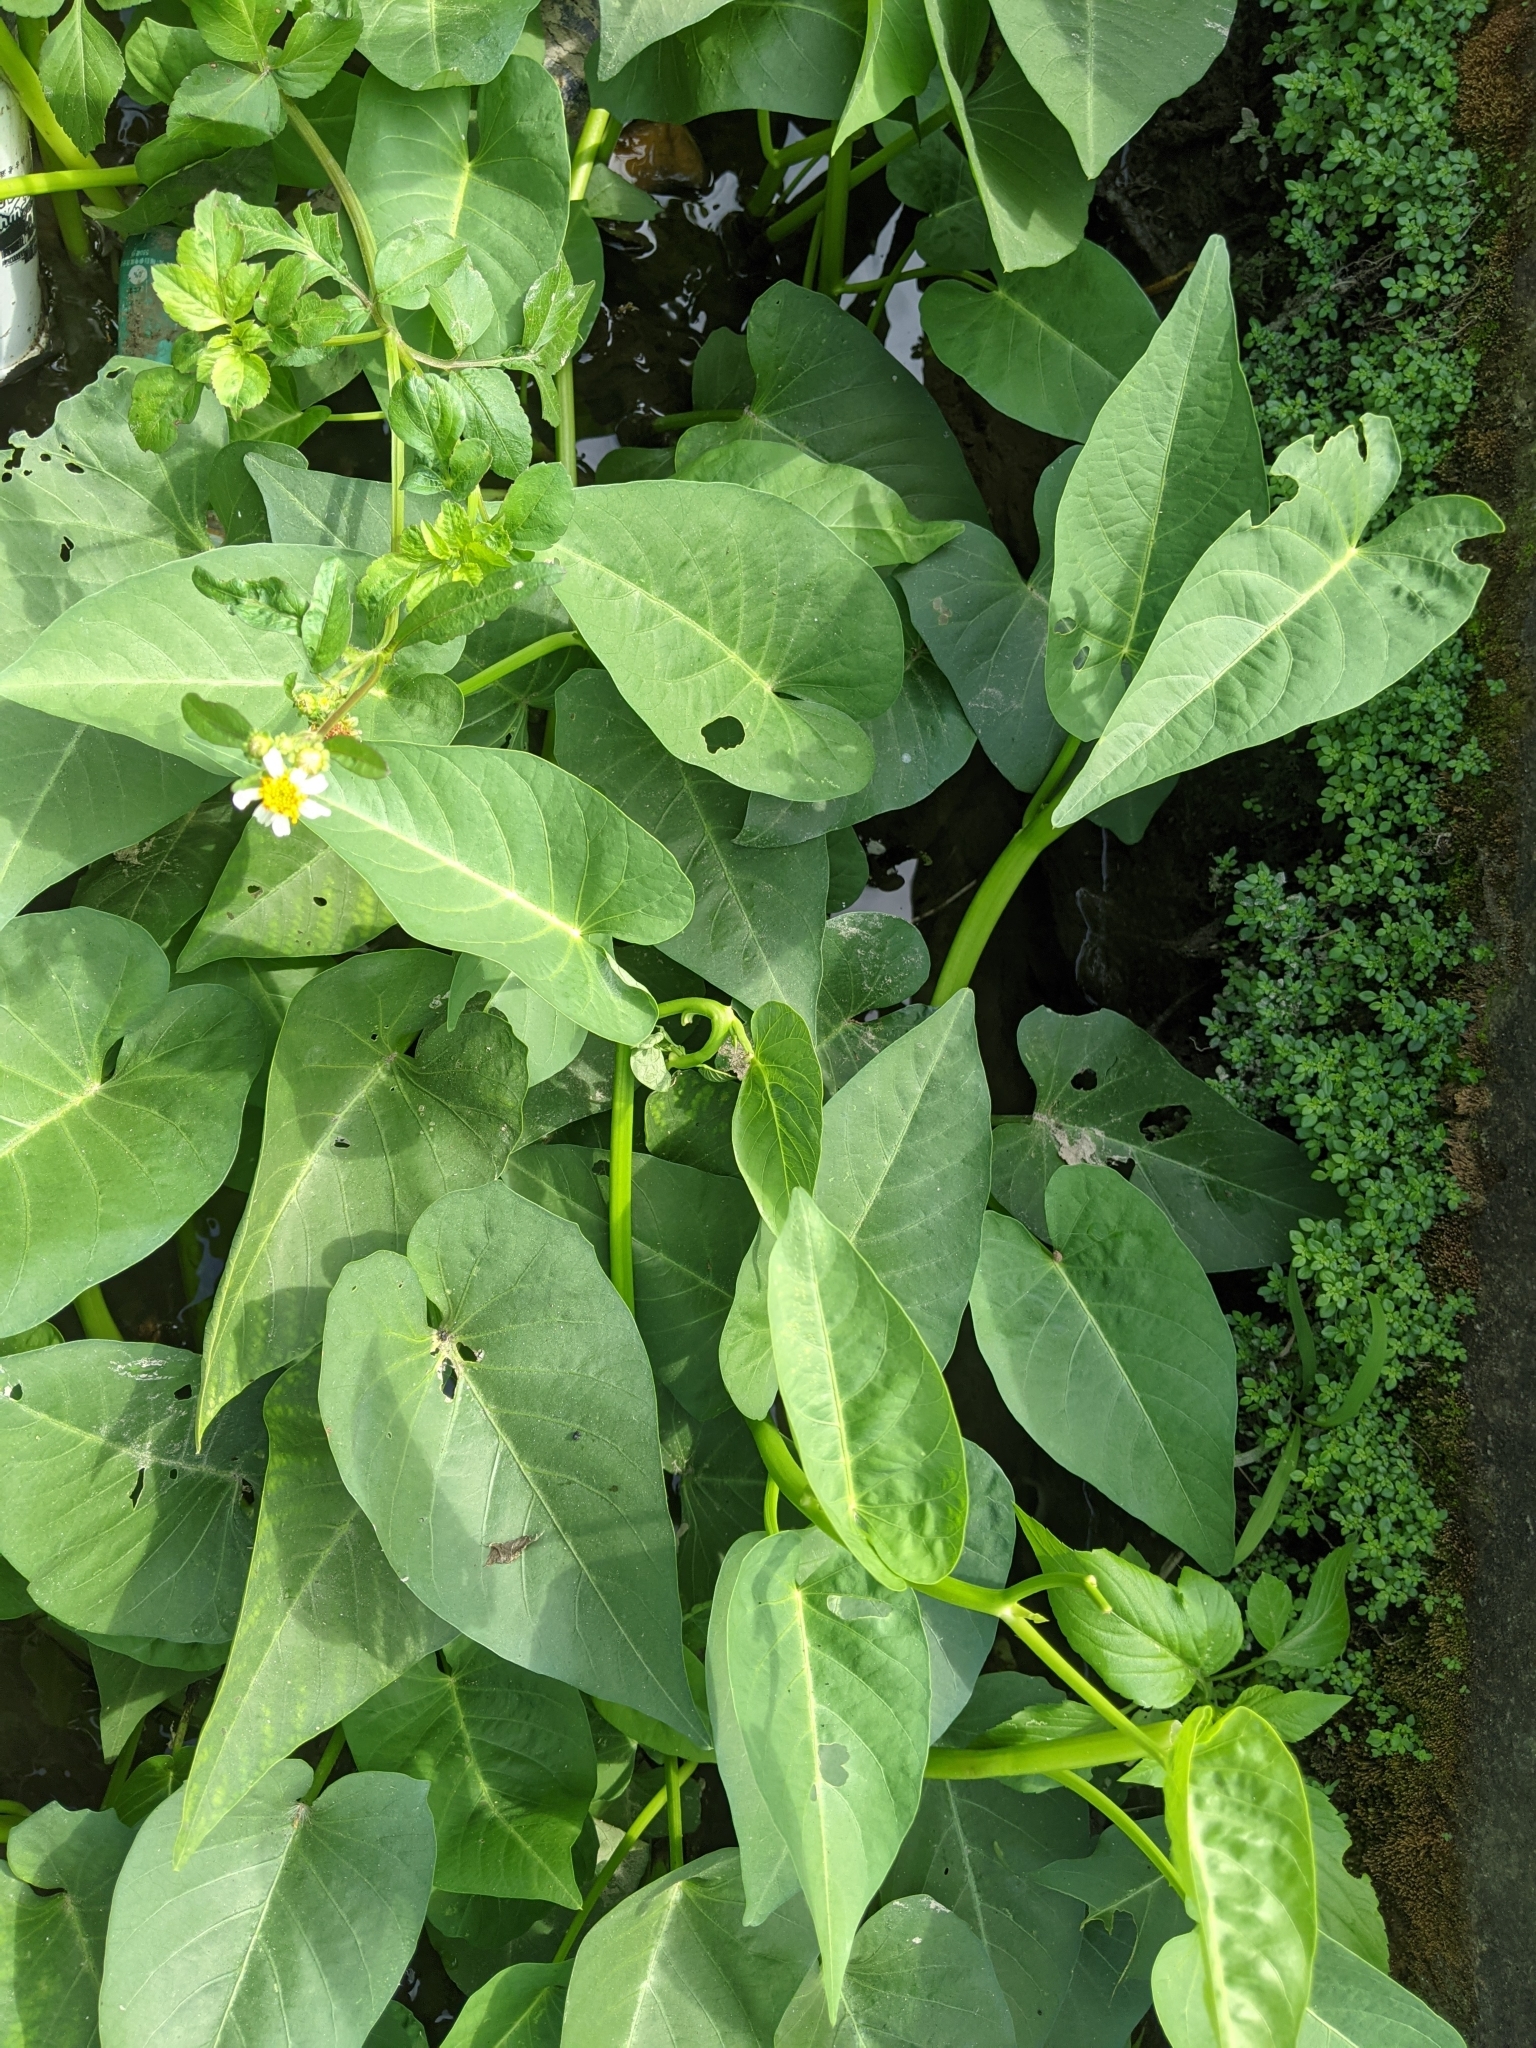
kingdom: Plantae
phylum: Tracheophyta
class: Magnoliopsida
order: Solanales
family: Convolvulaceae
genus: Ipomoea
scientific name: Ipomoea aquatica
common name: Swamp morning-glory
